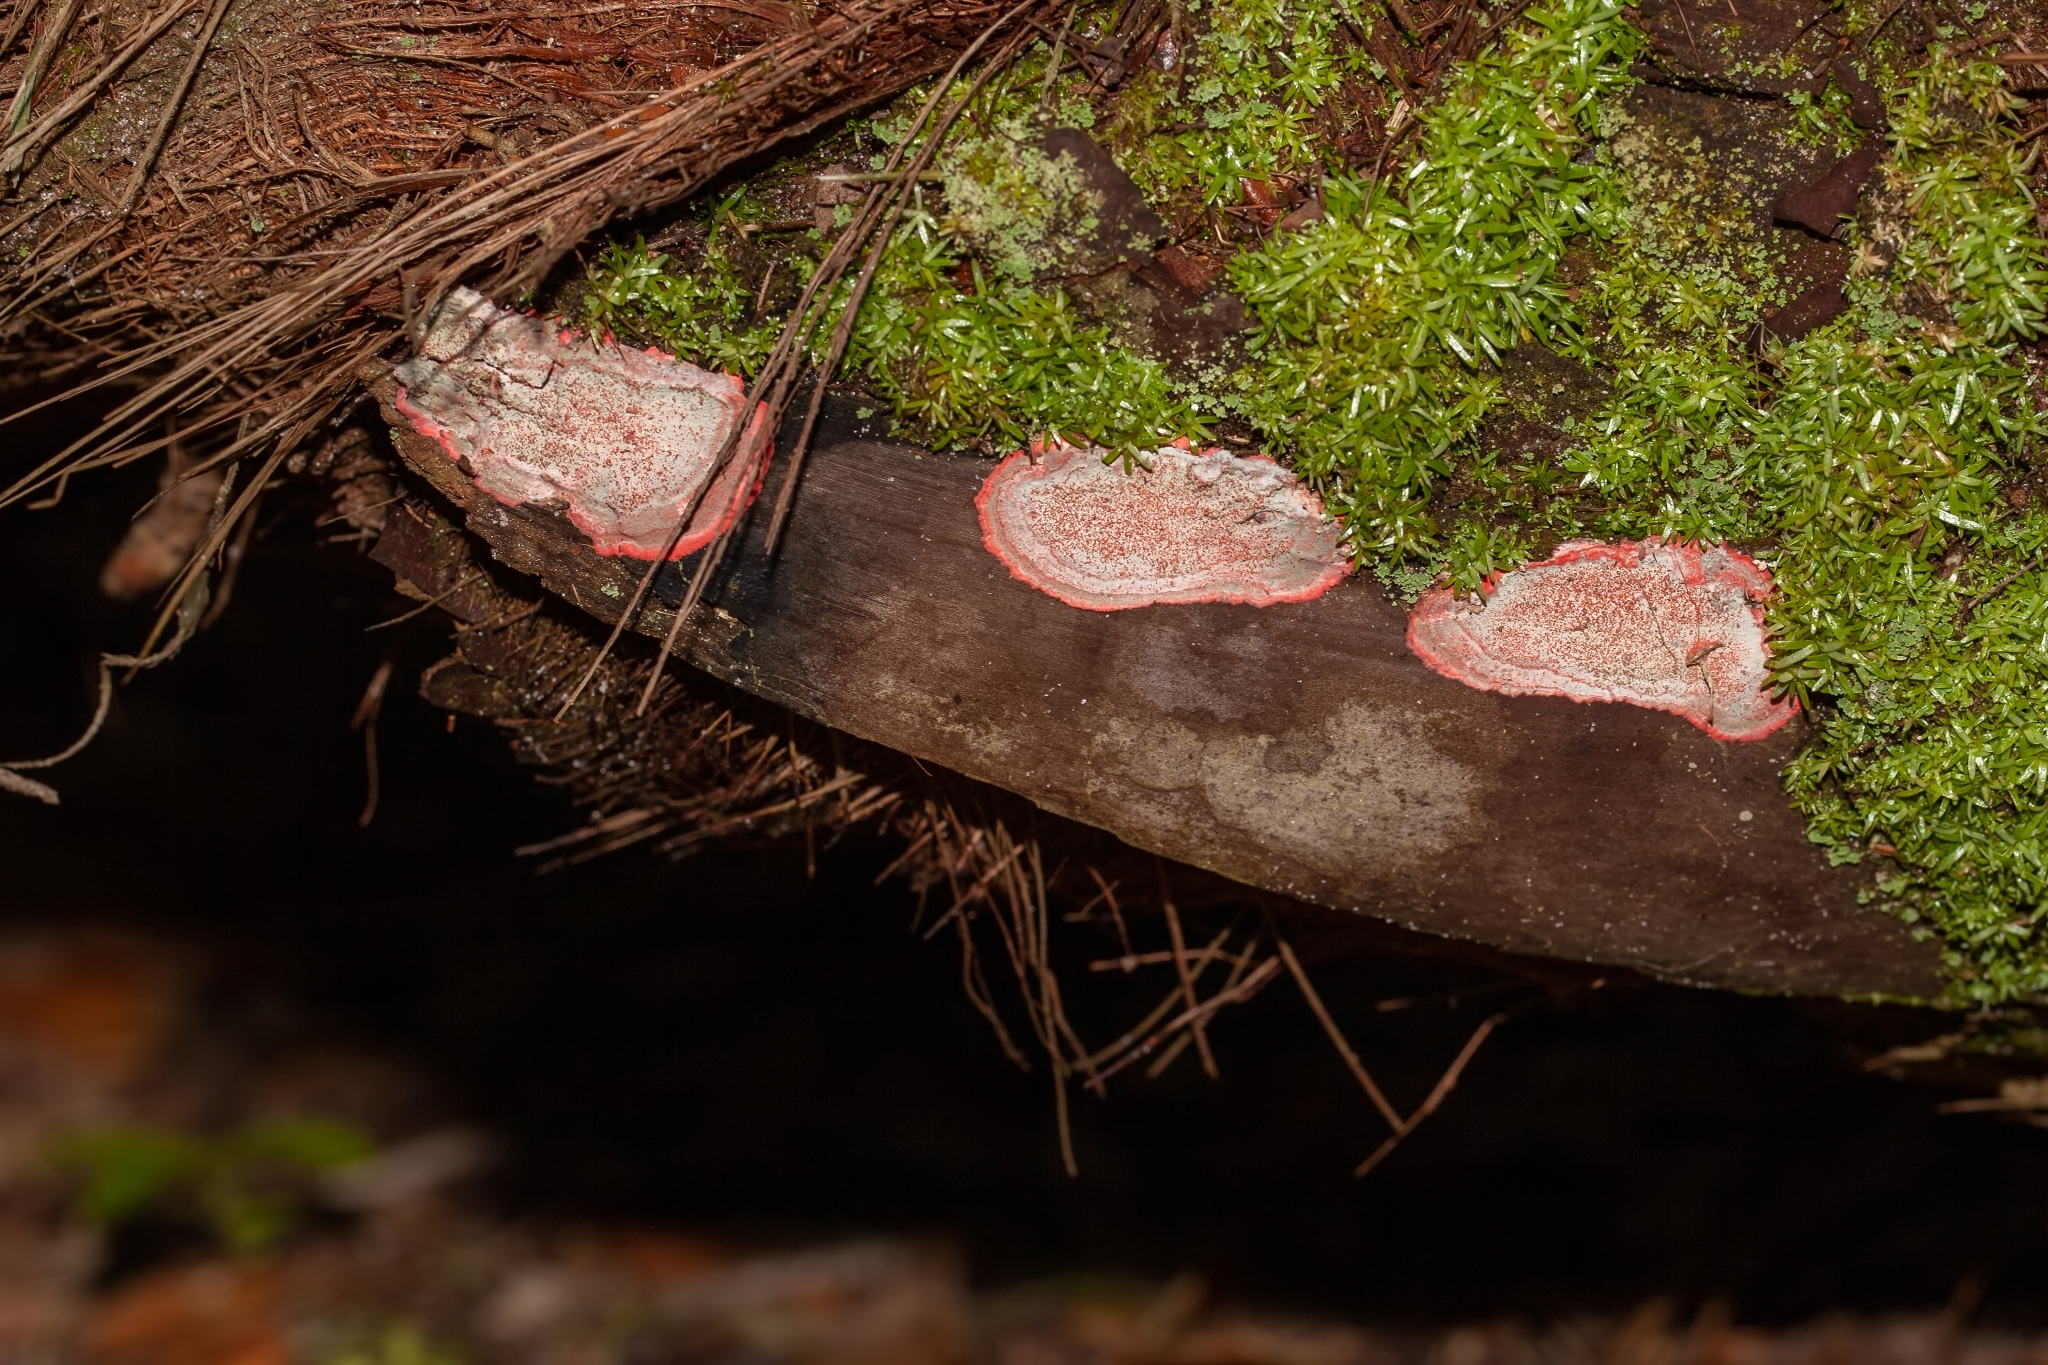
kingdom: Fungi
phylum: Ascomycota
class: Arthoniomycetes
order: Arthoniales
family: Arthoniaceae
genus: Herpothallon
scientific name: Herpothallon rubrocinctum
